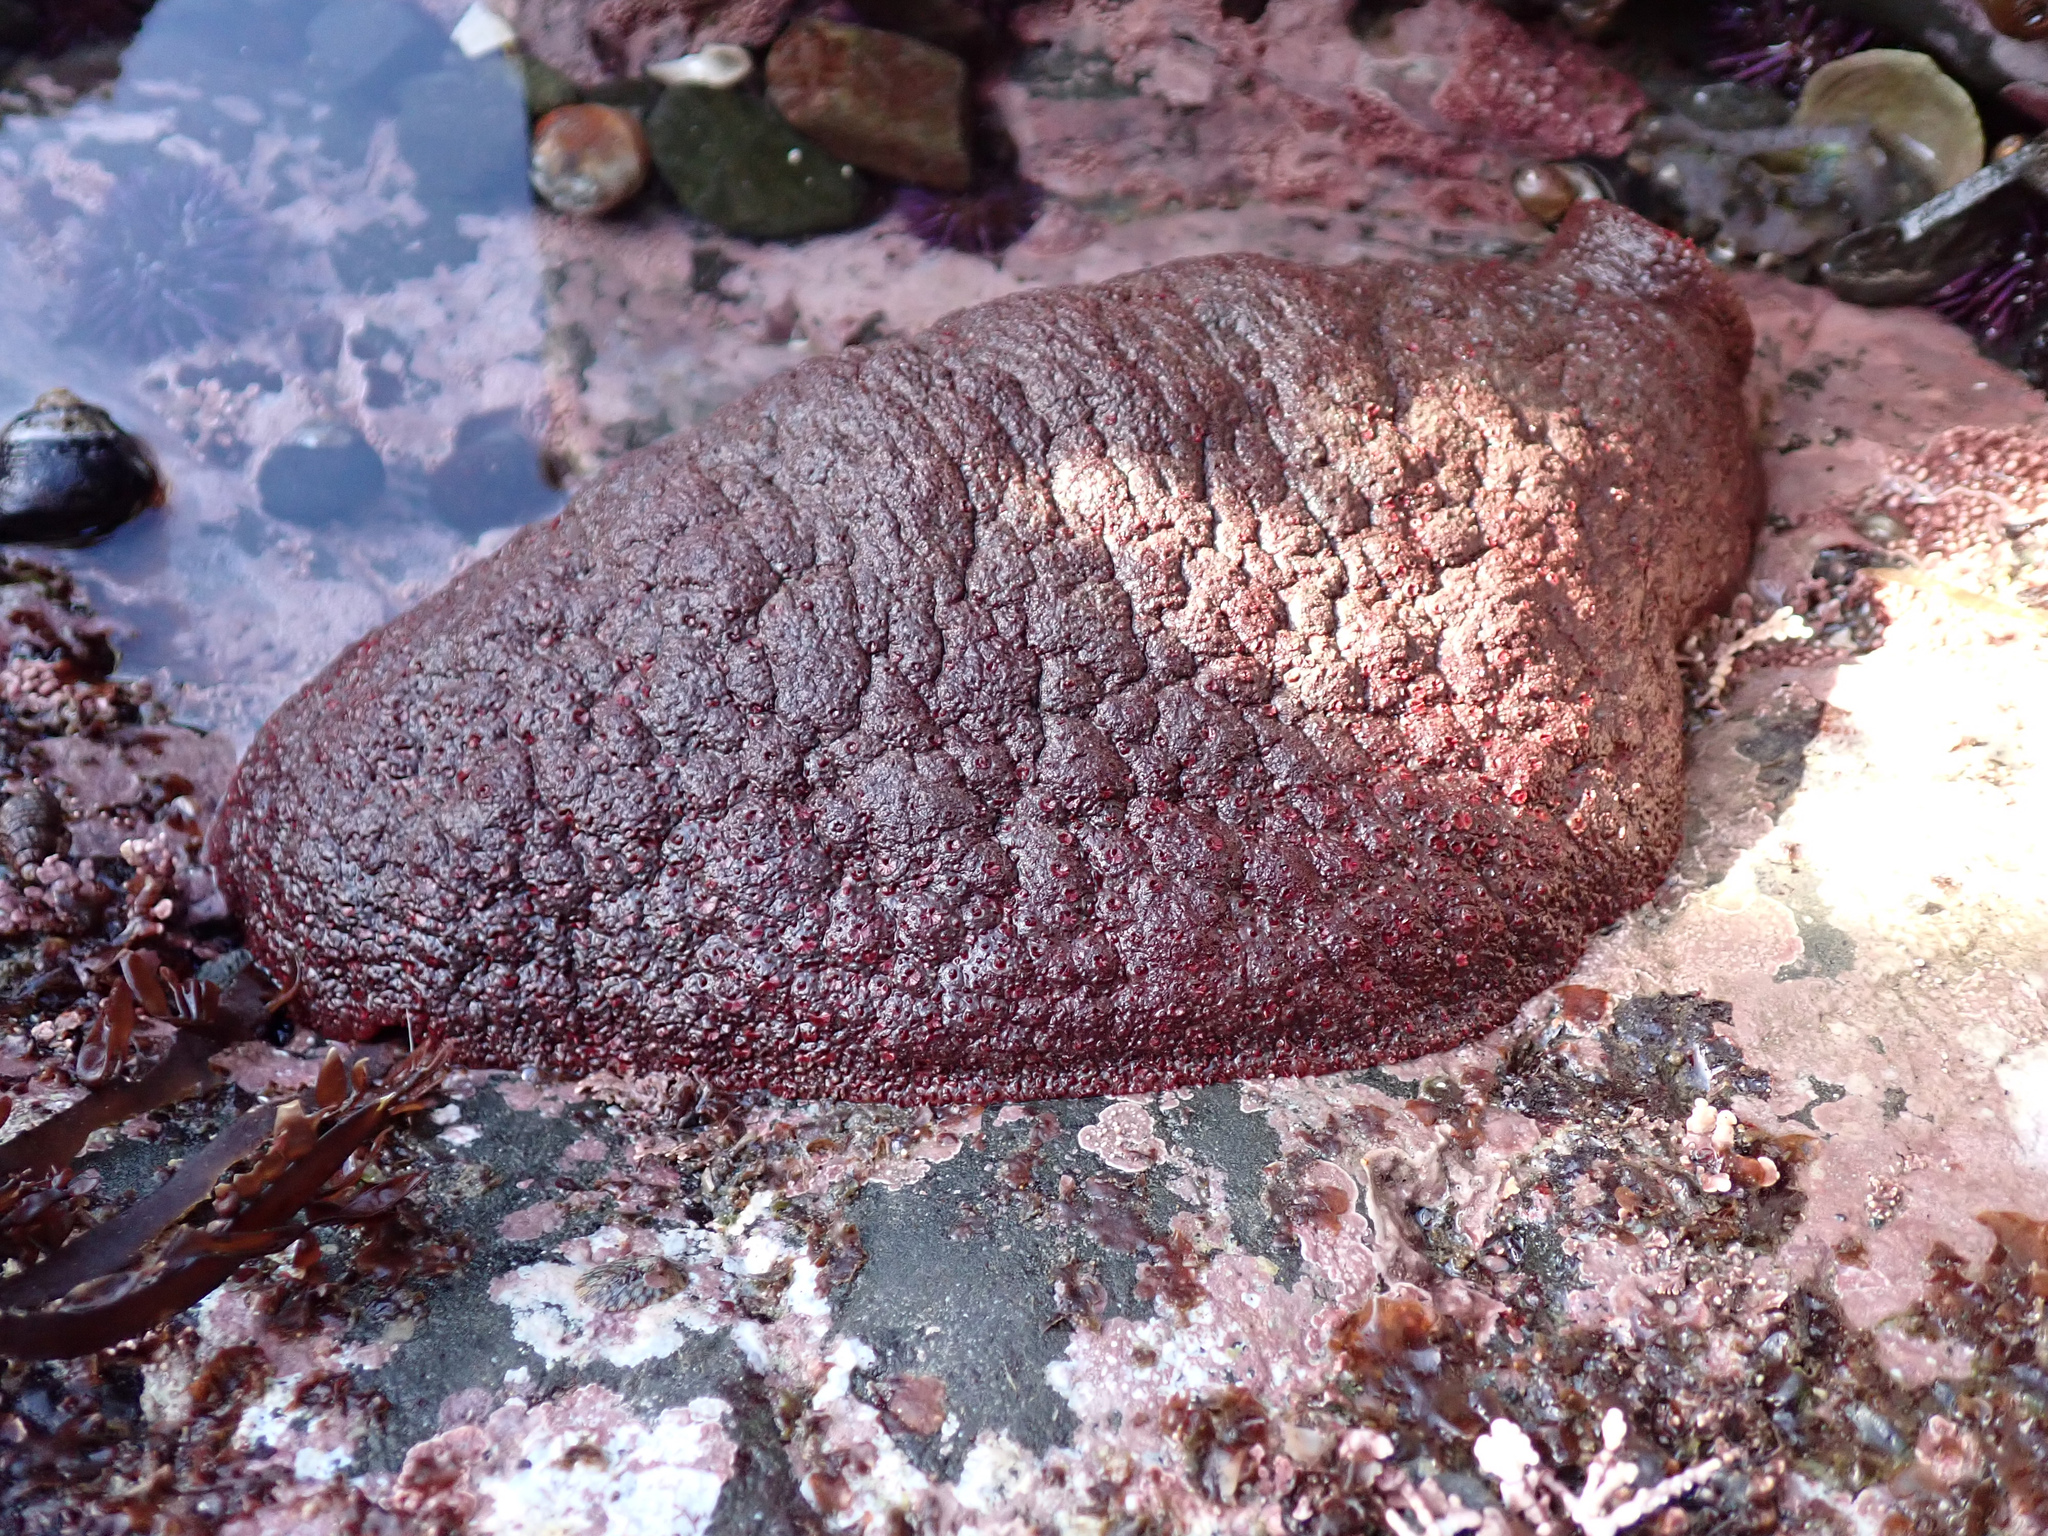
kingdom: Animalia
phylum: Mollusca
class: Polyplacophora
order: Chitonida
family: Acanthochitonidae
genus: Cryptochiton
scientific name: Cryptochiton stelleri
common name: Giant pacific chiton
